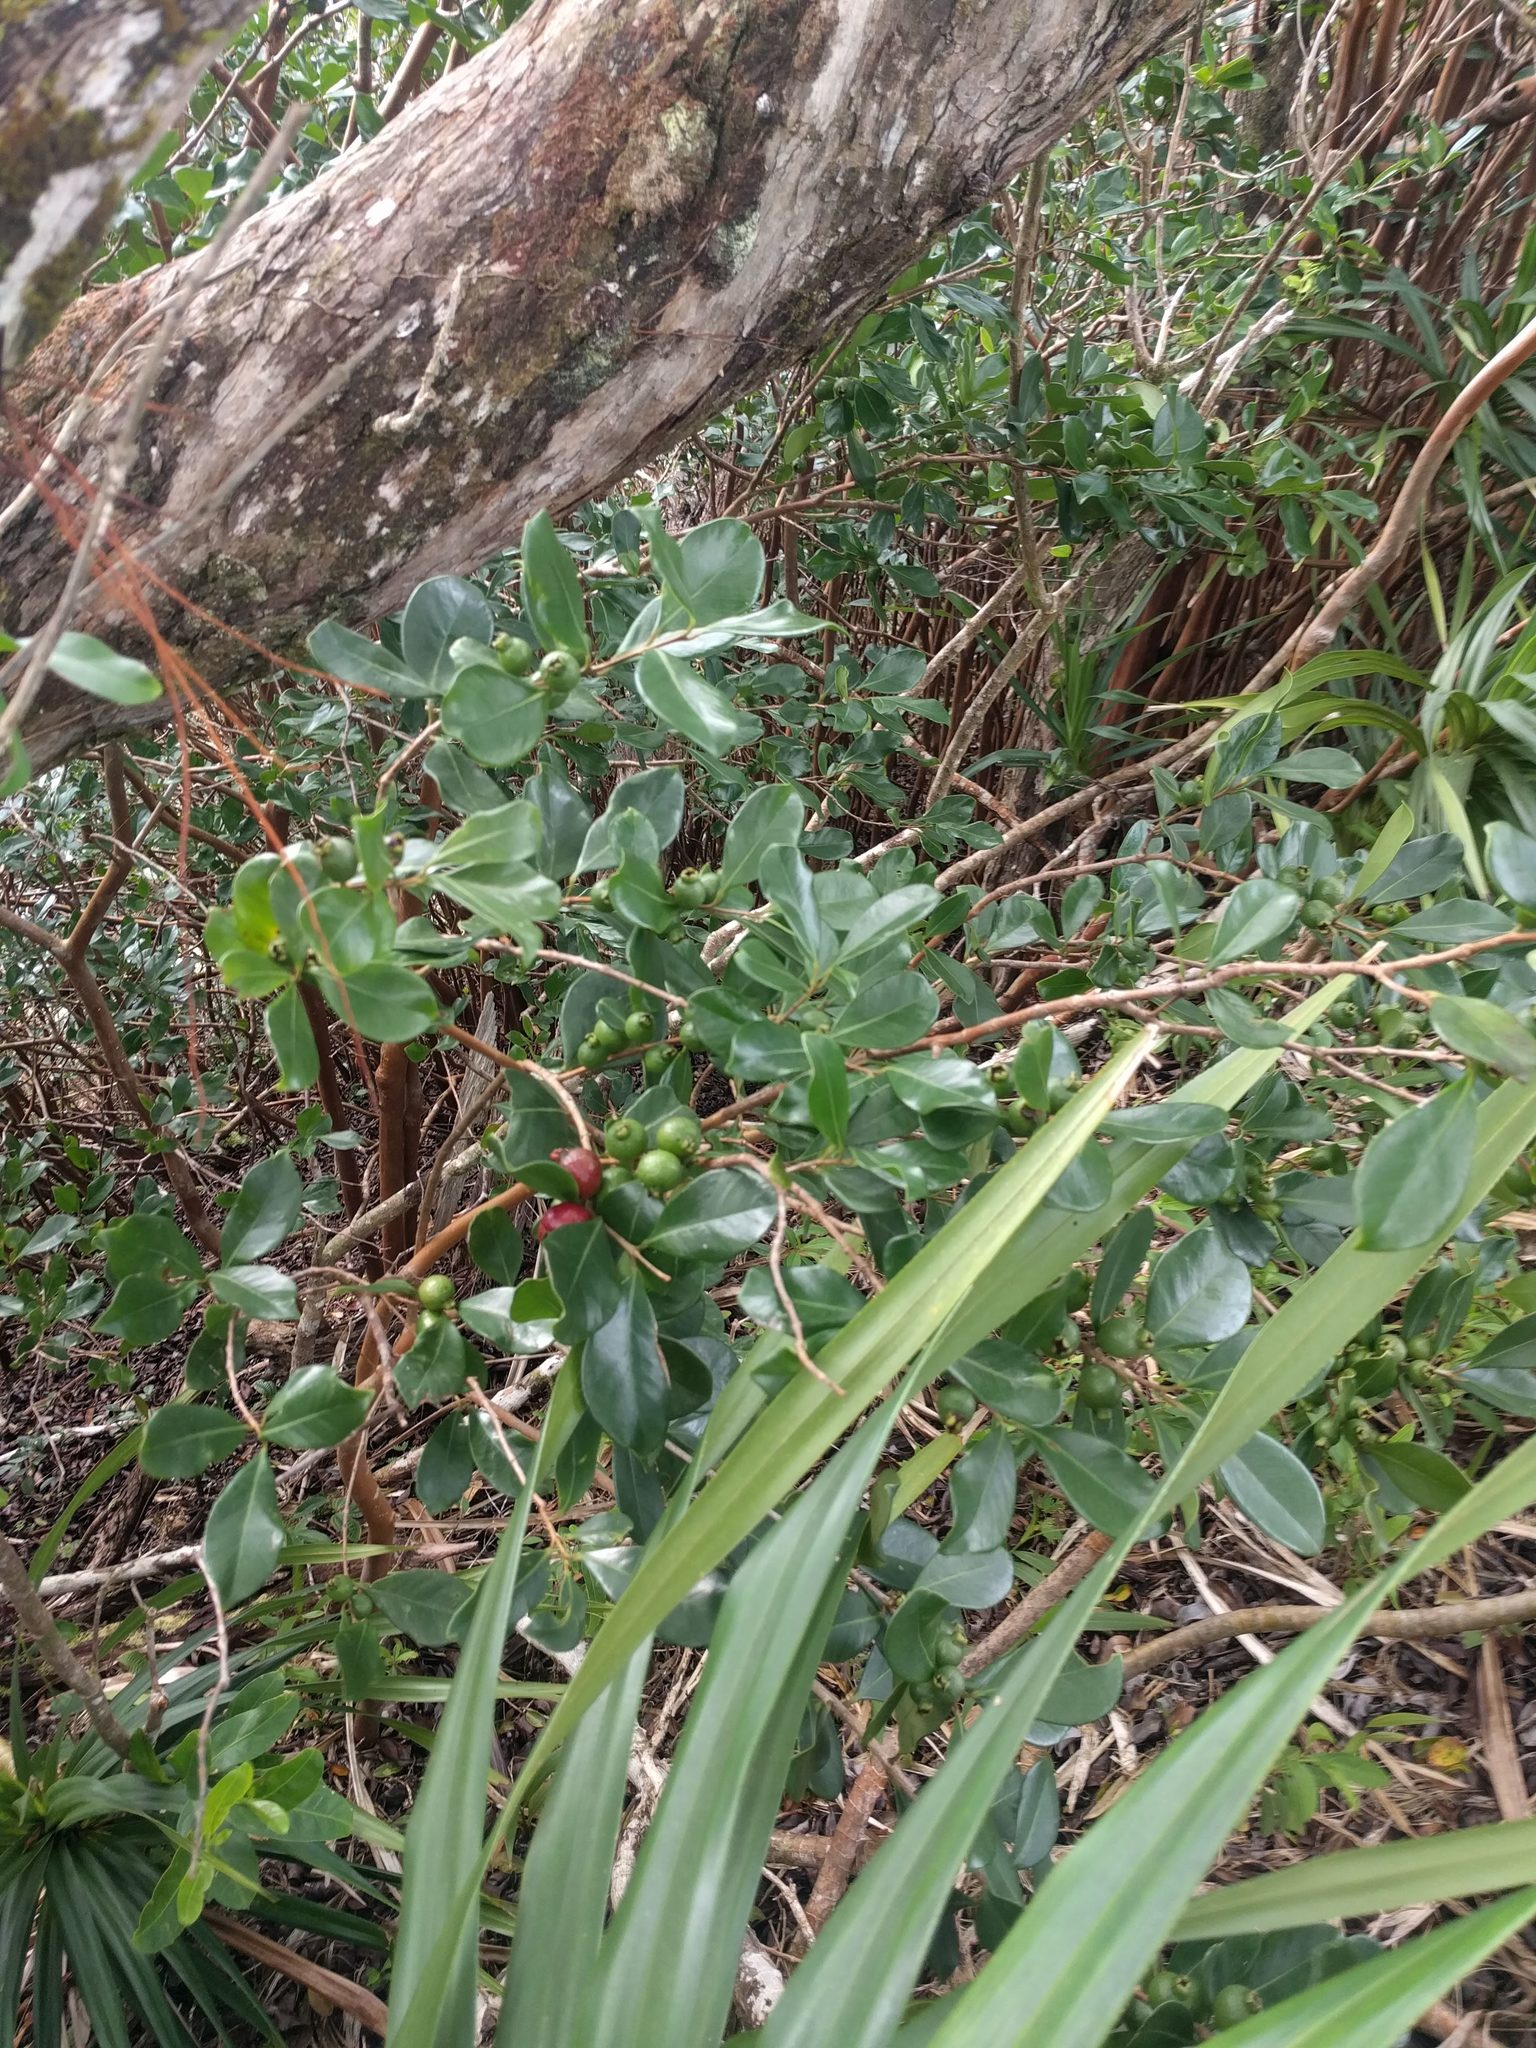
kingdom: Plantae
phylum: Tracheophyta
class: Magnoliopsida
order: Myrtales
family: Myrtaceae
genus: Psidium
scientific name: Psidium cattleianum
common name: Strawberry guava
